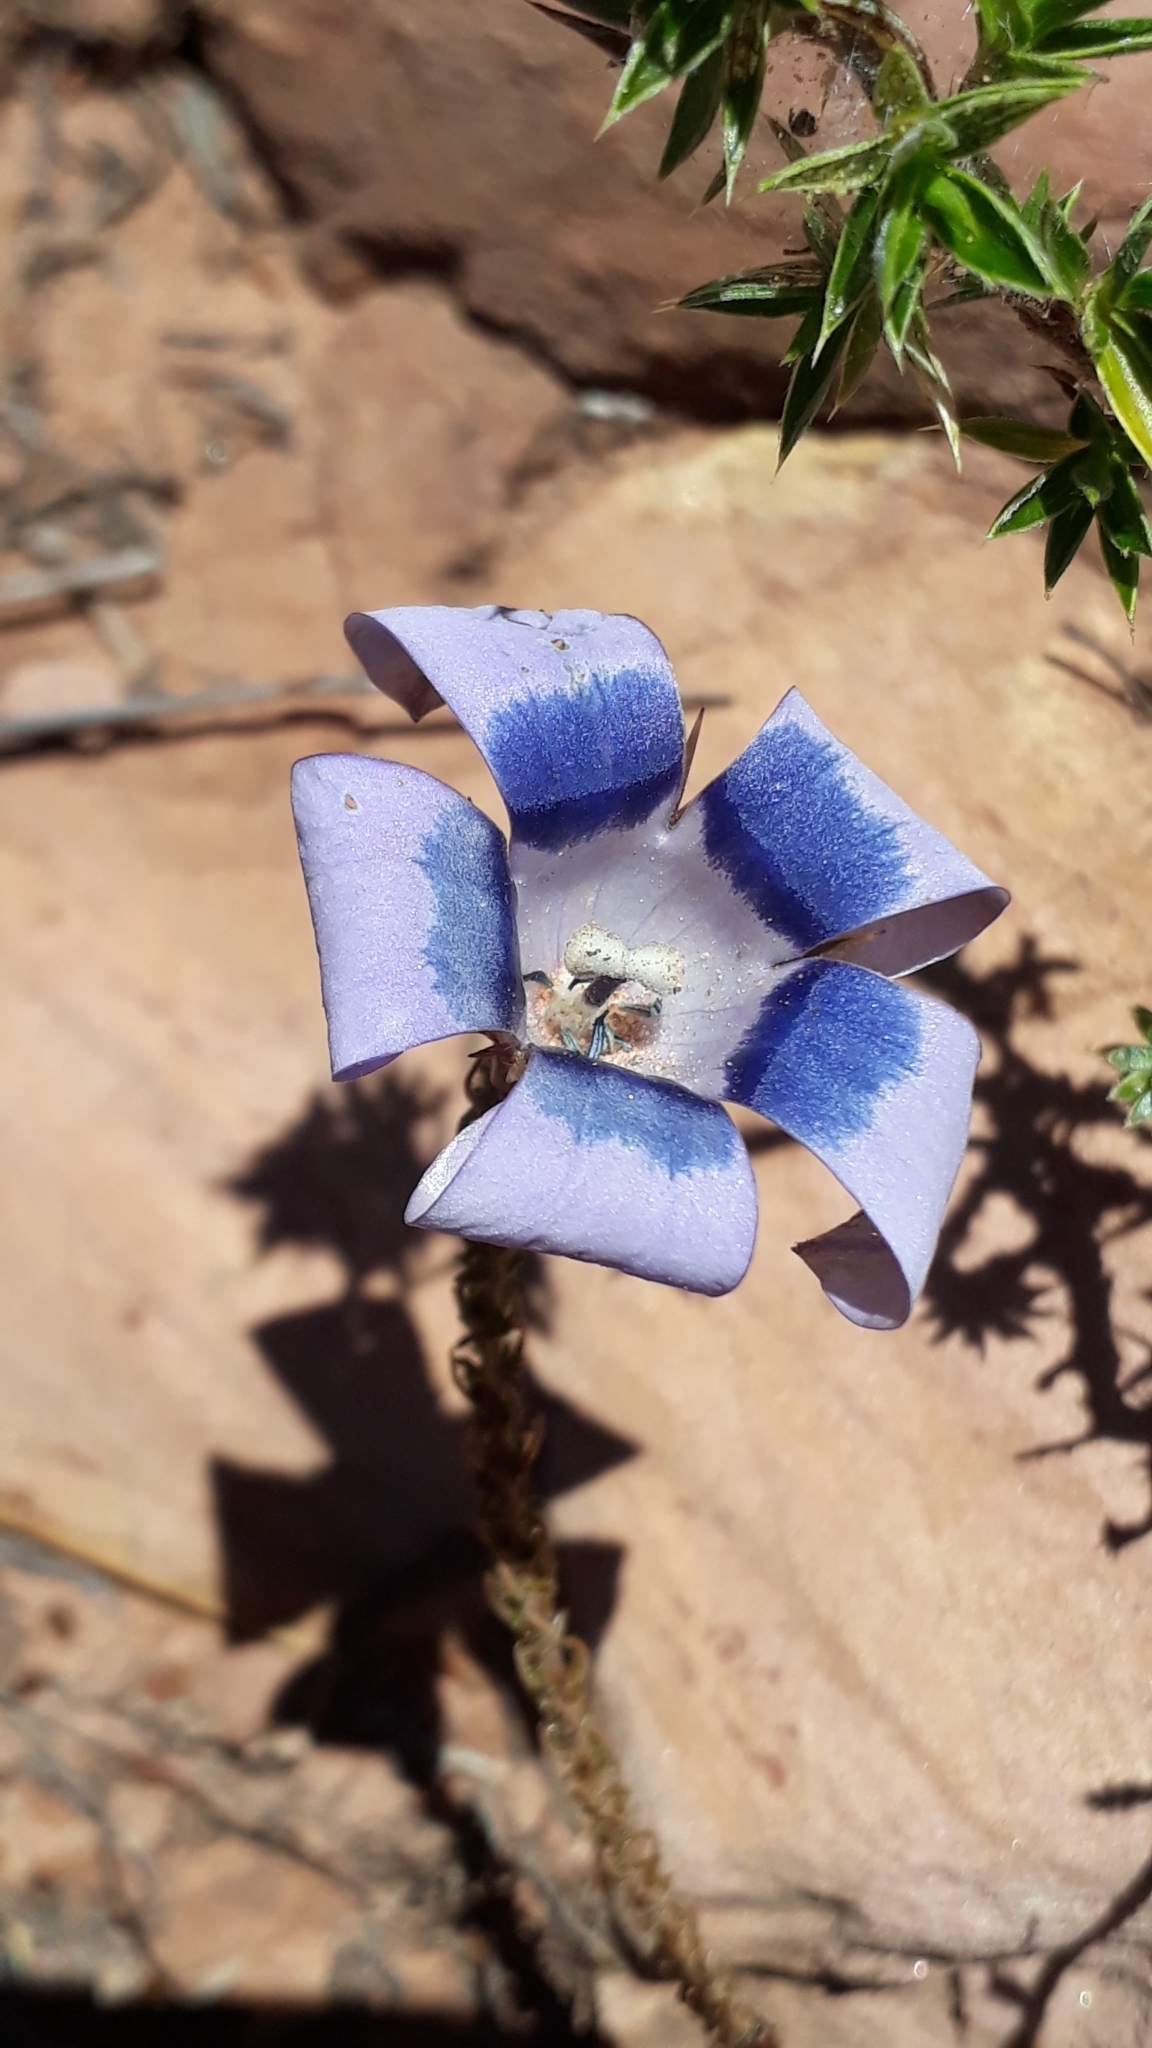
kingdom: Plantae
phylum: Tracheophyta
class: Magnoliopsida
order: Asterales
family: Campanulaceae
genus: Roella
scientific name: Roella ciliata
